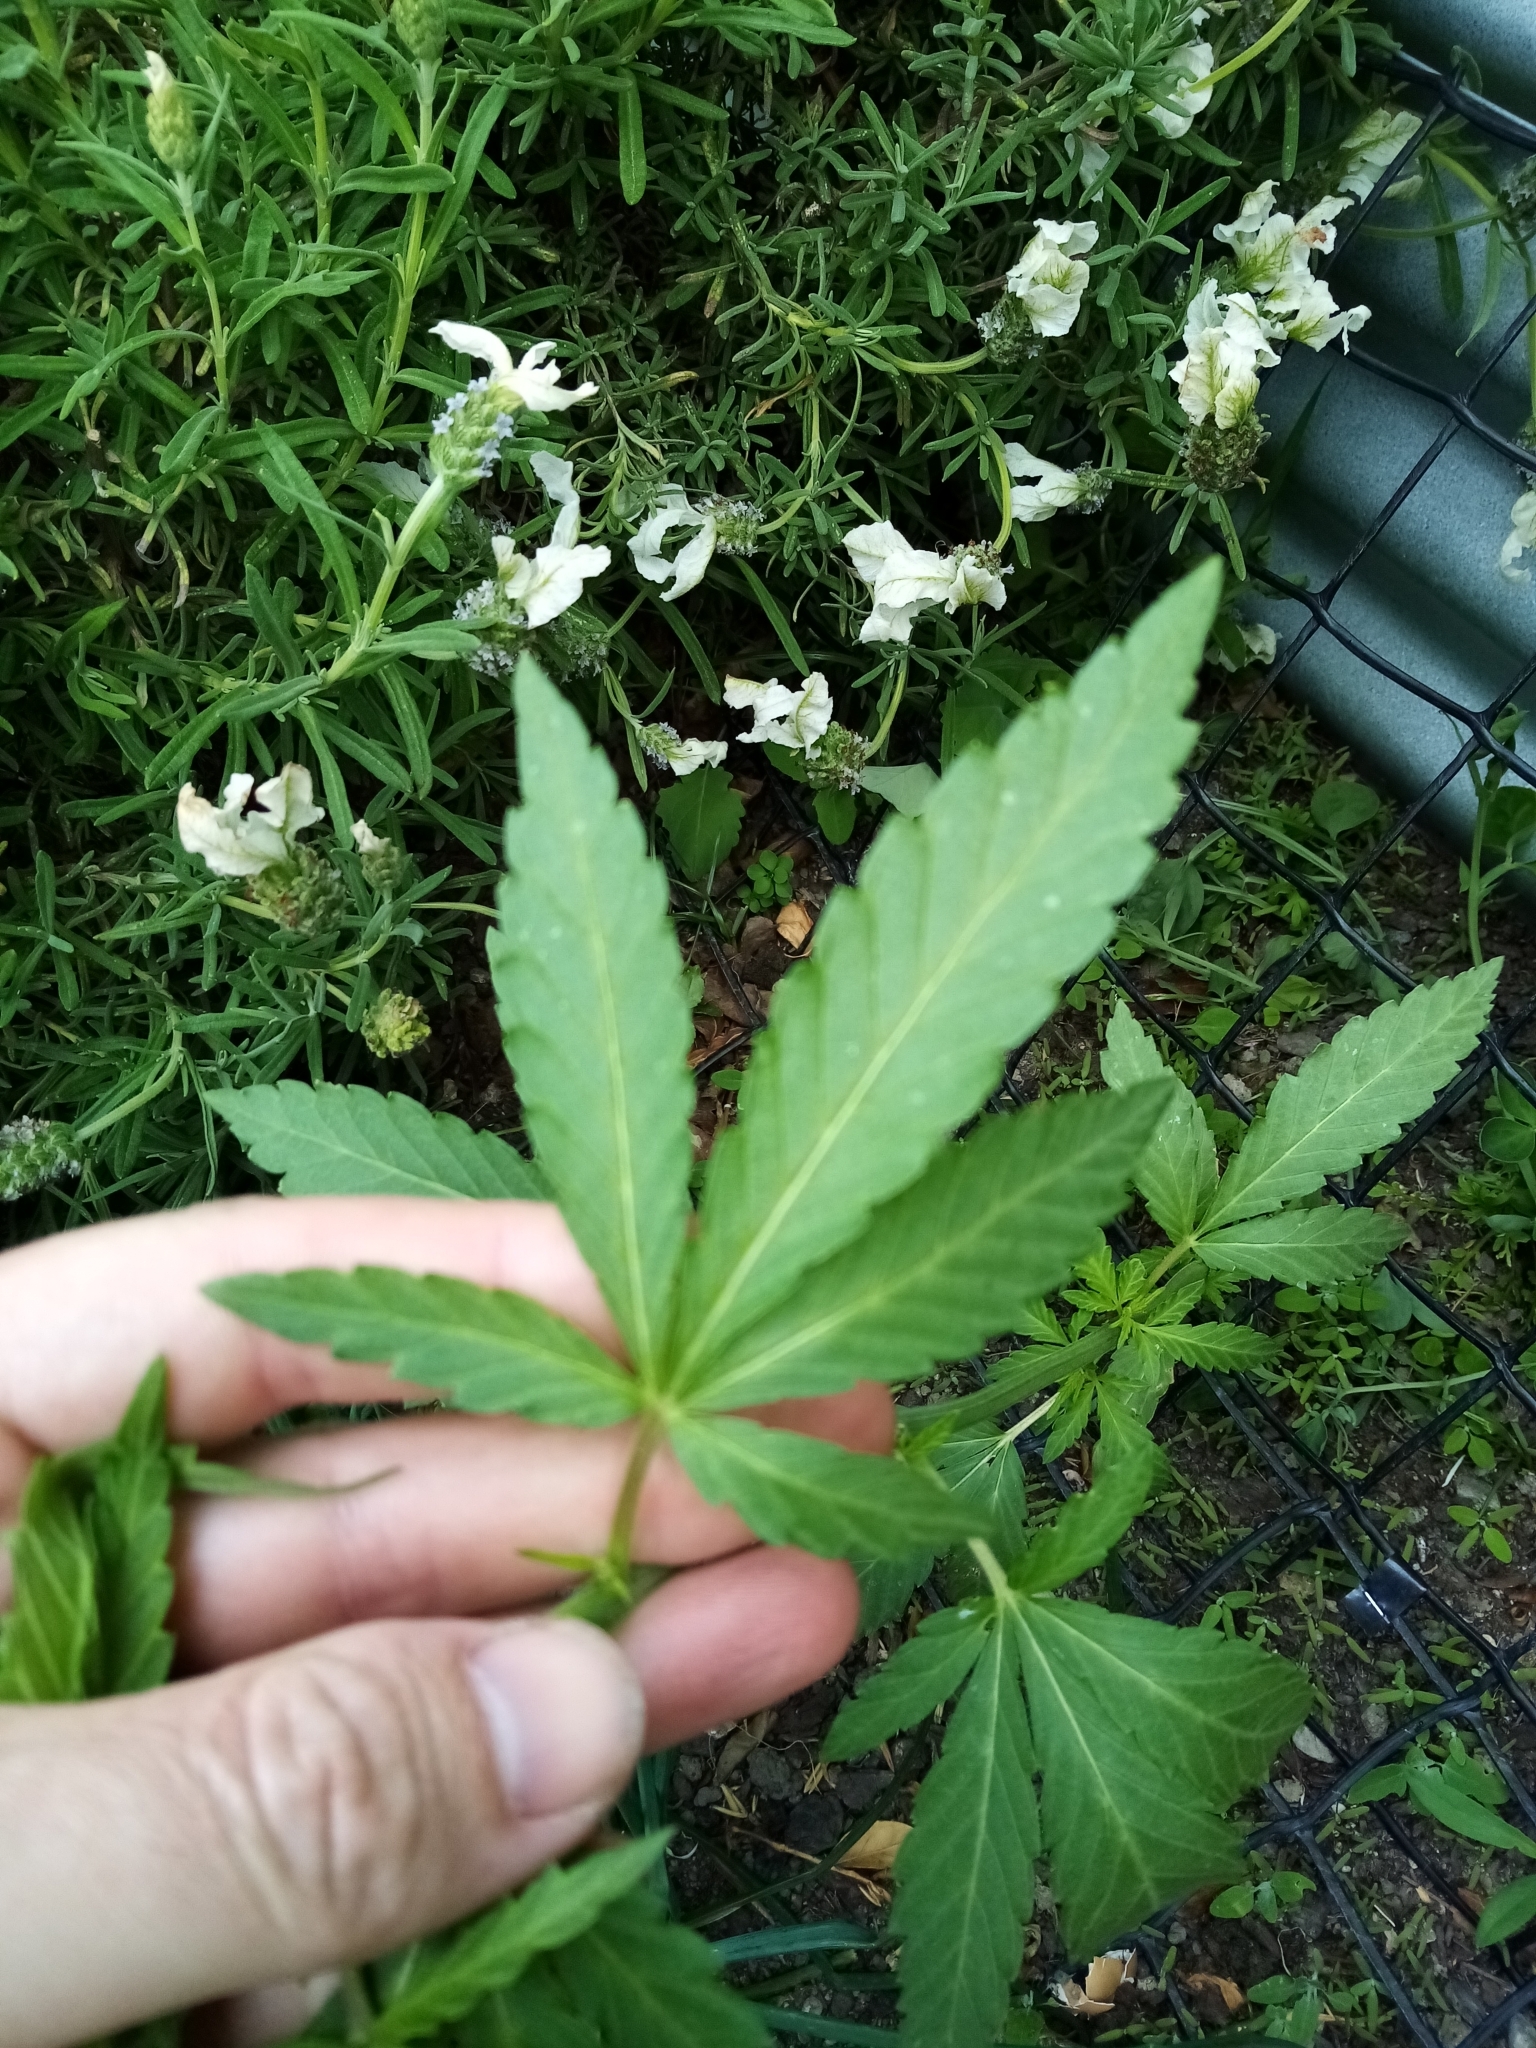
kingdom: Plantae
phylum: Tracheophyta
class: Magnoliopsida
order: Rosales
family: Cannabaceae
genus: Cannabis
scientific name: Cannabis sativa
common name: Hemp
